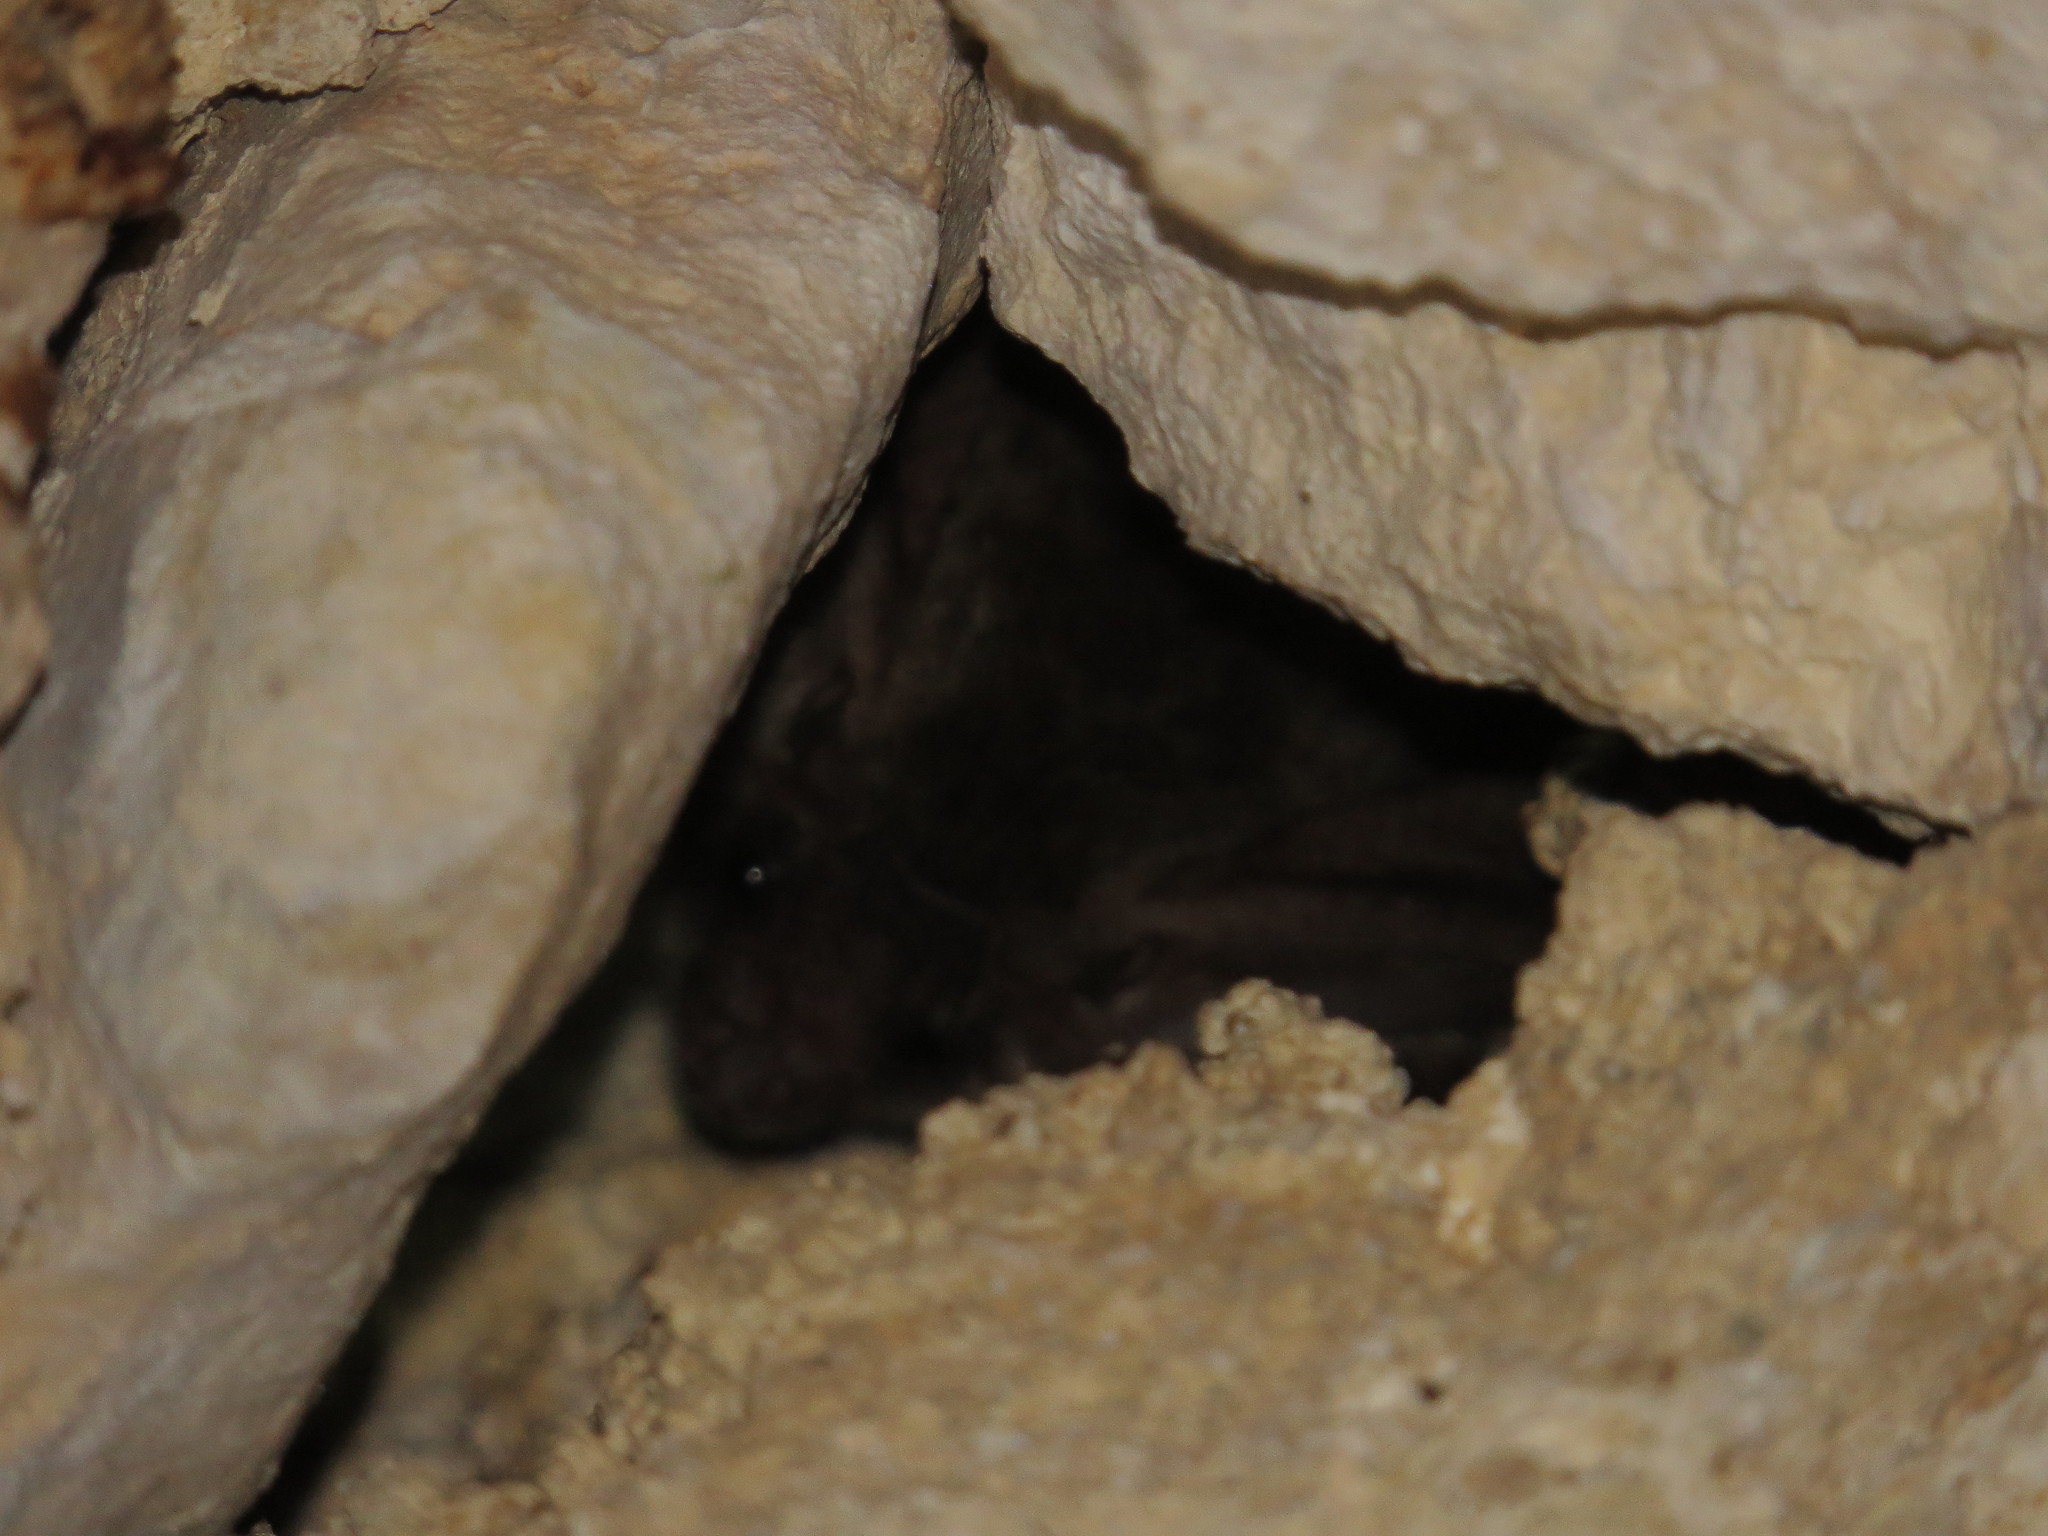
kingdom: Animalia
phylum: Chordata
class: Mammalia
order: Chiroptera
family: Vespertilionidae
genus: Plecotus
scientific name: Plecotus austriacus
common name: Grey long-eared bat
